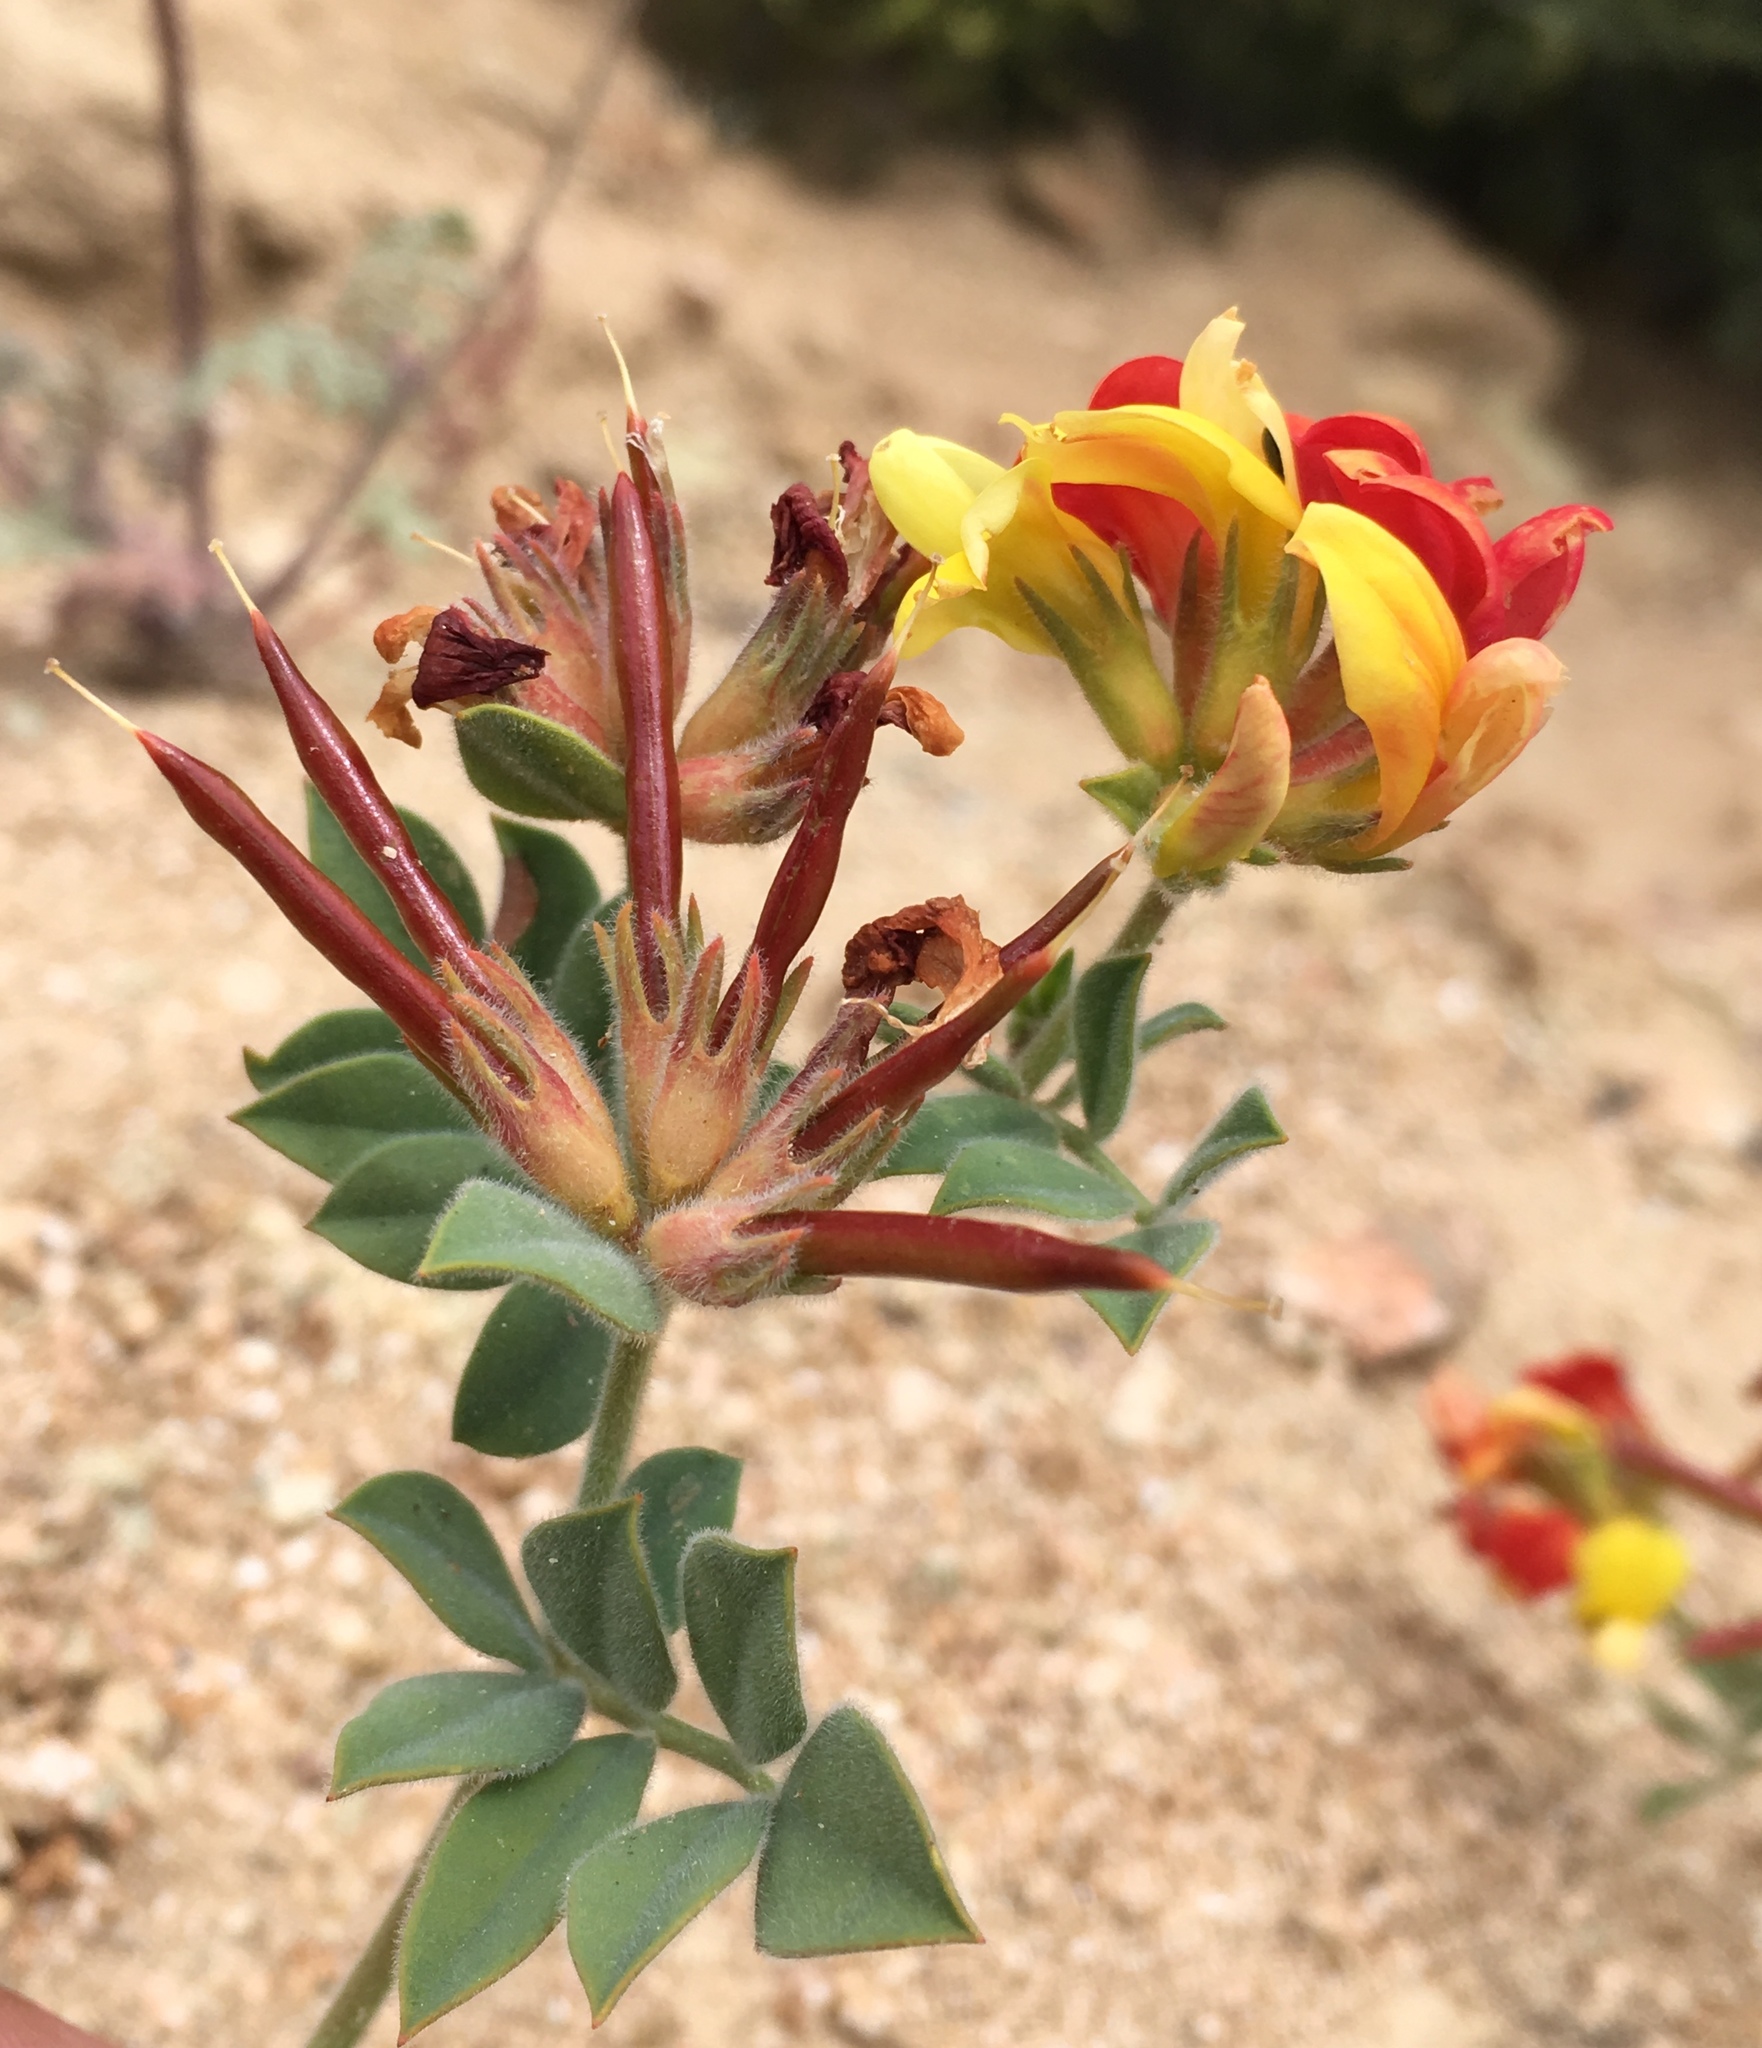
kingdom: Plantae
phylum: Tracheophyta
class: Magnoliopsida
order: Fabales
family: Fabaceae
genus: Acmispon
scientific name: Acmispon grandiflorus
